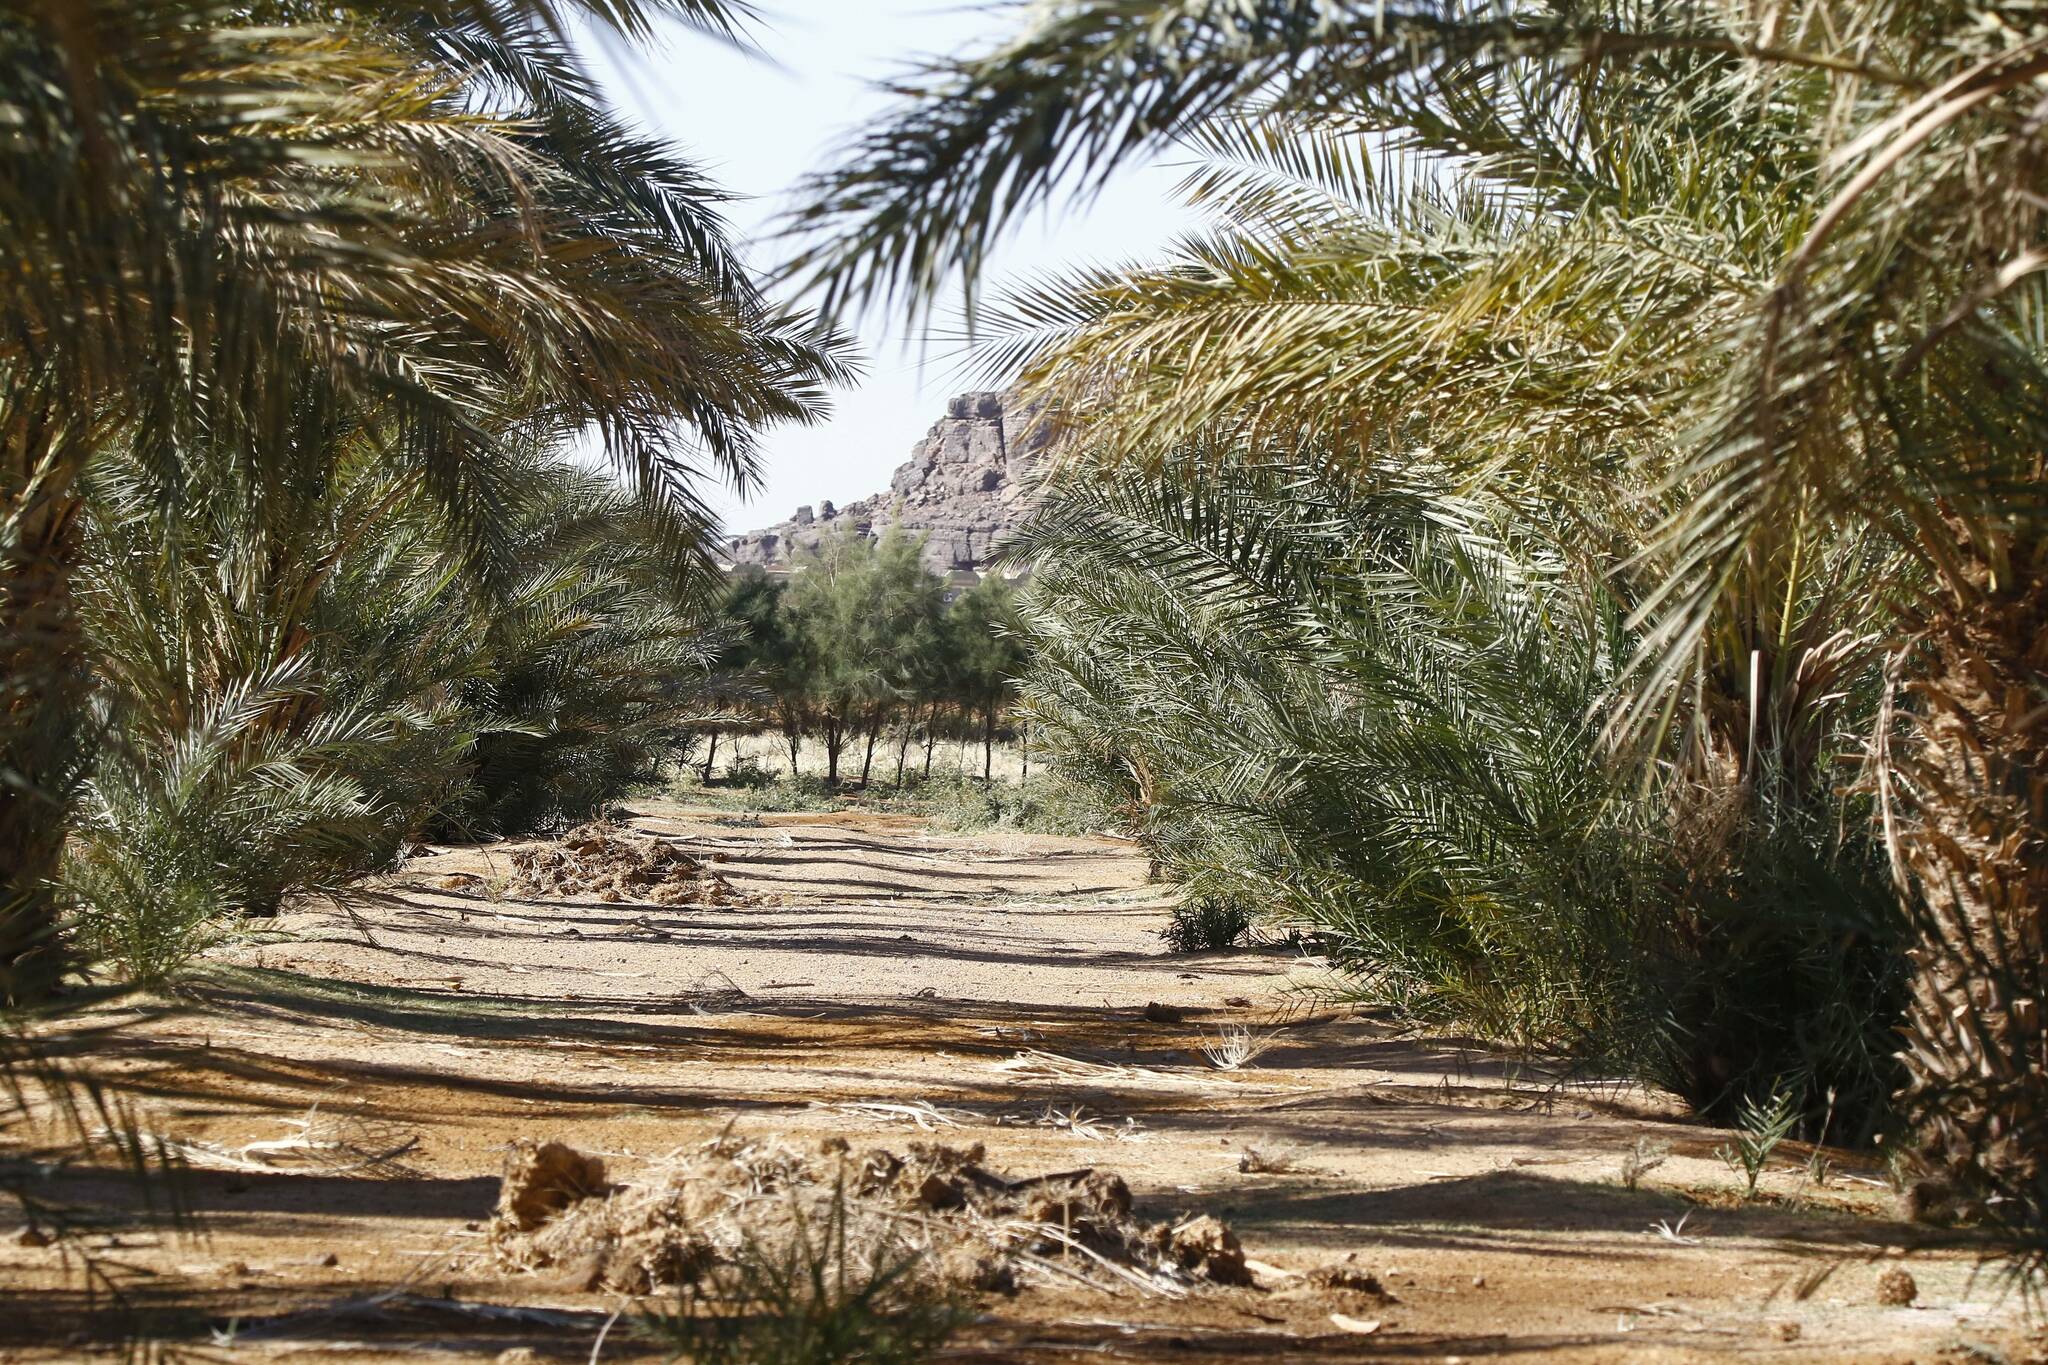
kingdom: Plantae
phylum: Tracheophyta
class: Liliopsida
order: Arecales
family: Arecaceae
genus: Phoenix
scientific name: Phoenix dactylifera
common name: Date palm
